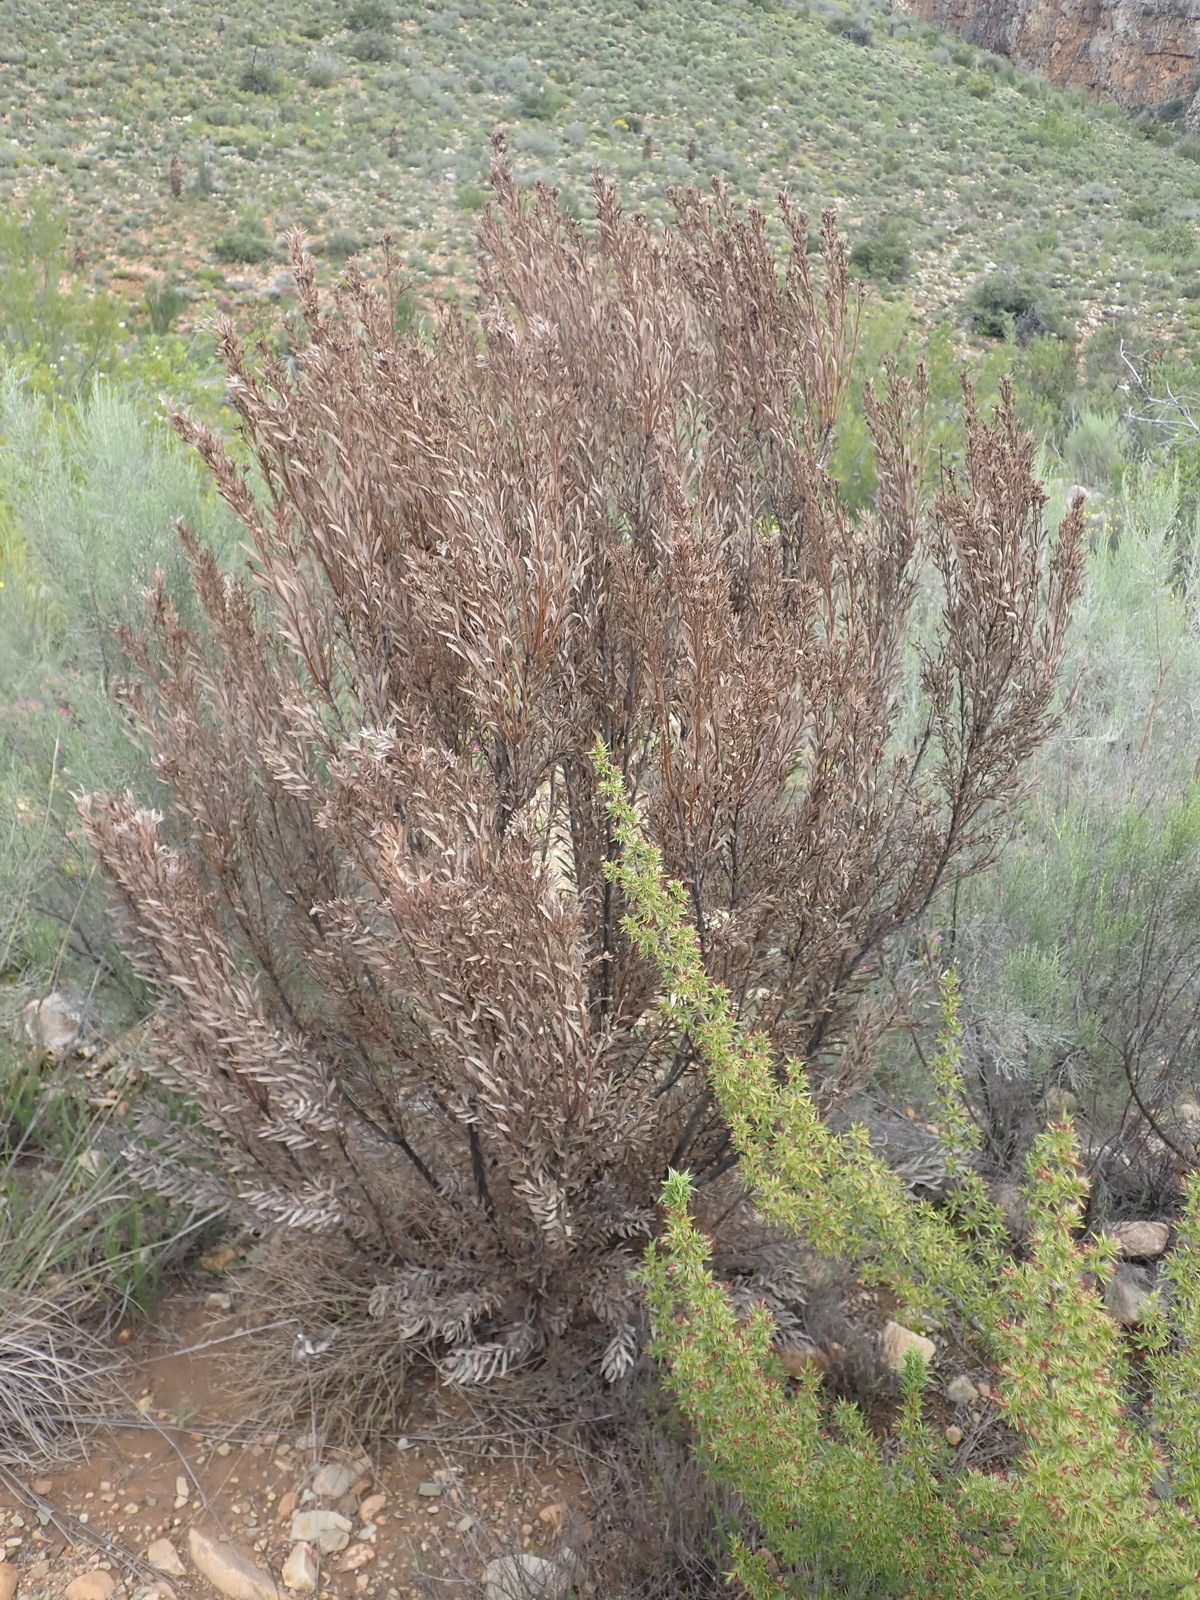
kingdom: Plantae
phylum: Tracheophyta
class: Magnoliopsida
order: Proteales
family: Proteaceae
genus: Leucadendron
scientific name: Leucadendron rubrum
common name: Spinning top
